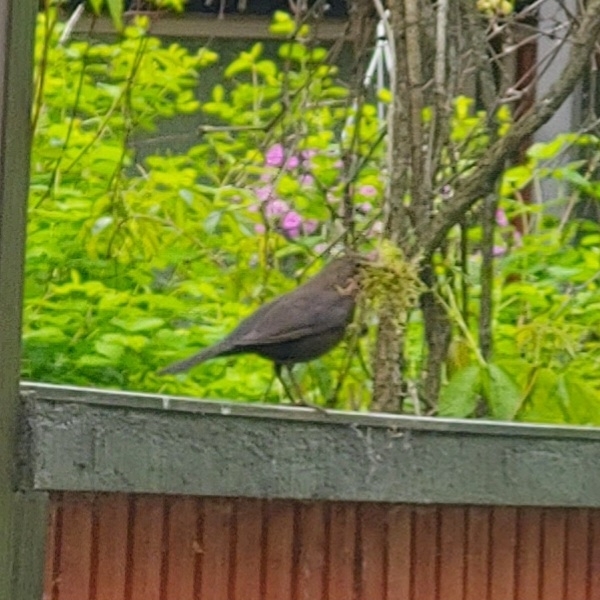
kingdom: Animalia
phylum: Chordata
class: Aves
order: Passeriformes
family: Turdidae
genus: Turdus
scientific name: Turdus merula
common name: Common blackbird
